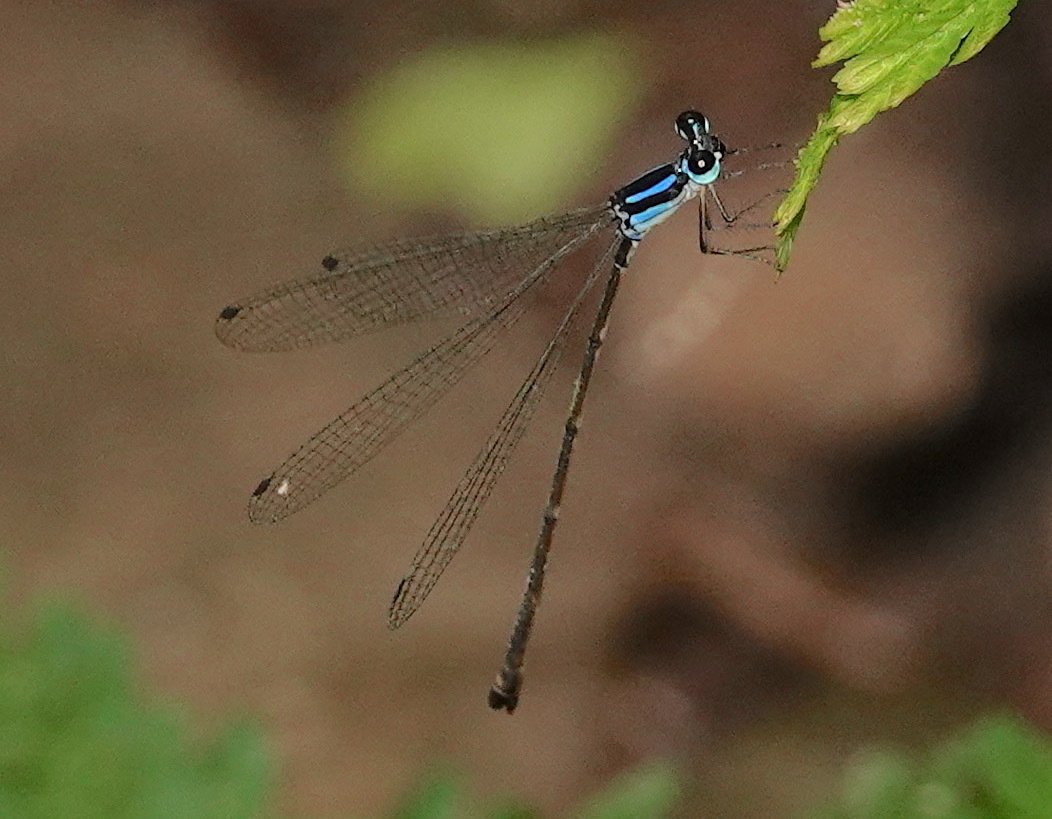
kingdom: Animalia
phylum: Arthropoda
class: Insecta
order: Odonata
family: Platycnemididae
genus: Coeliccia
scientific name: Coeliccia membranipes
